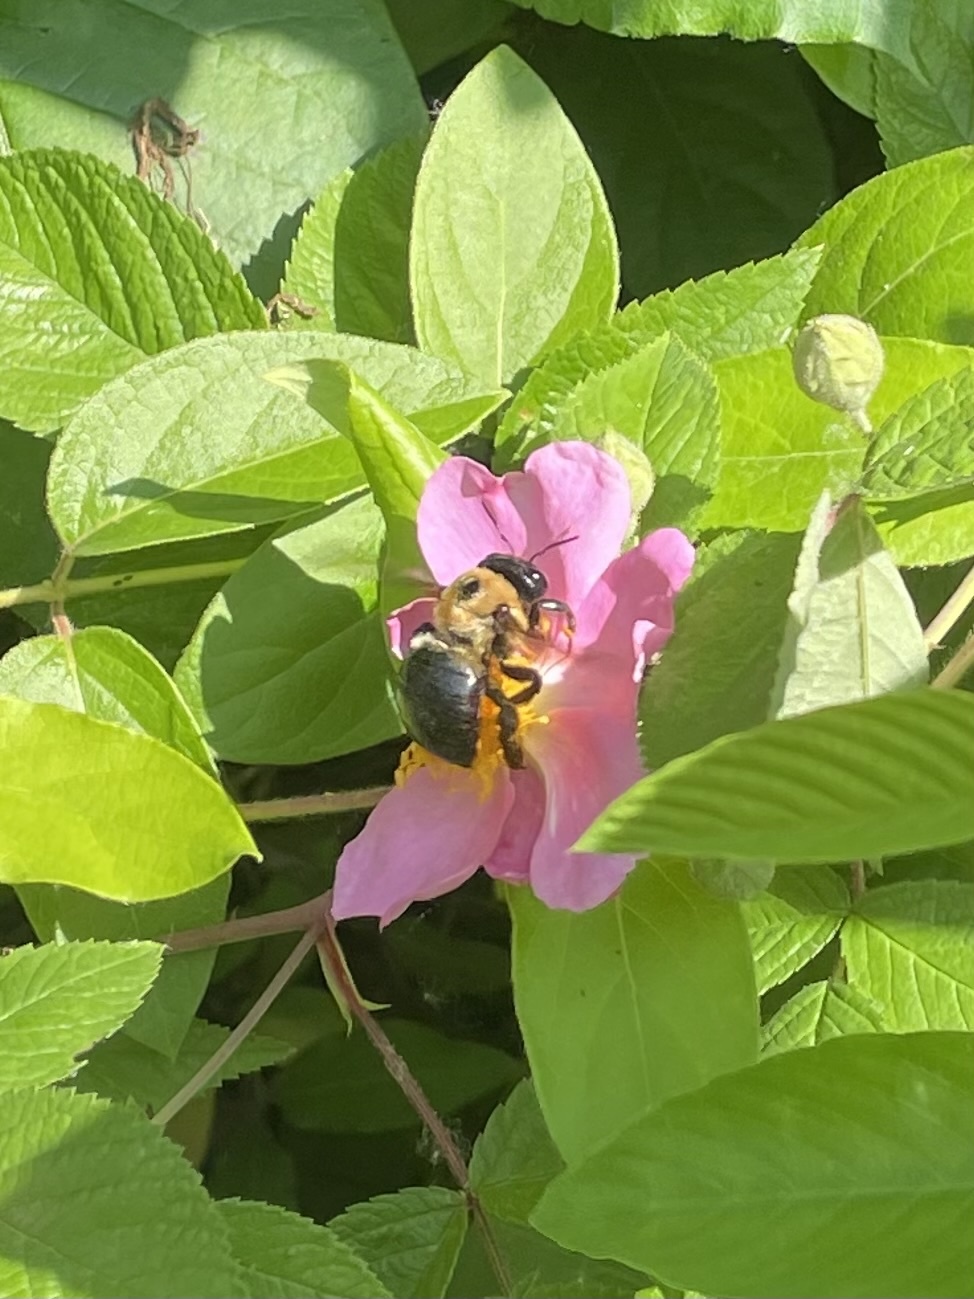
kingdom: Animalia
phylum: Arthropoda
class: Insecta
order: Hymenoptera
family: Apidae
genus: Xylocopa
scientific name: Xylocopa virginica
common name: Carpenter bee
